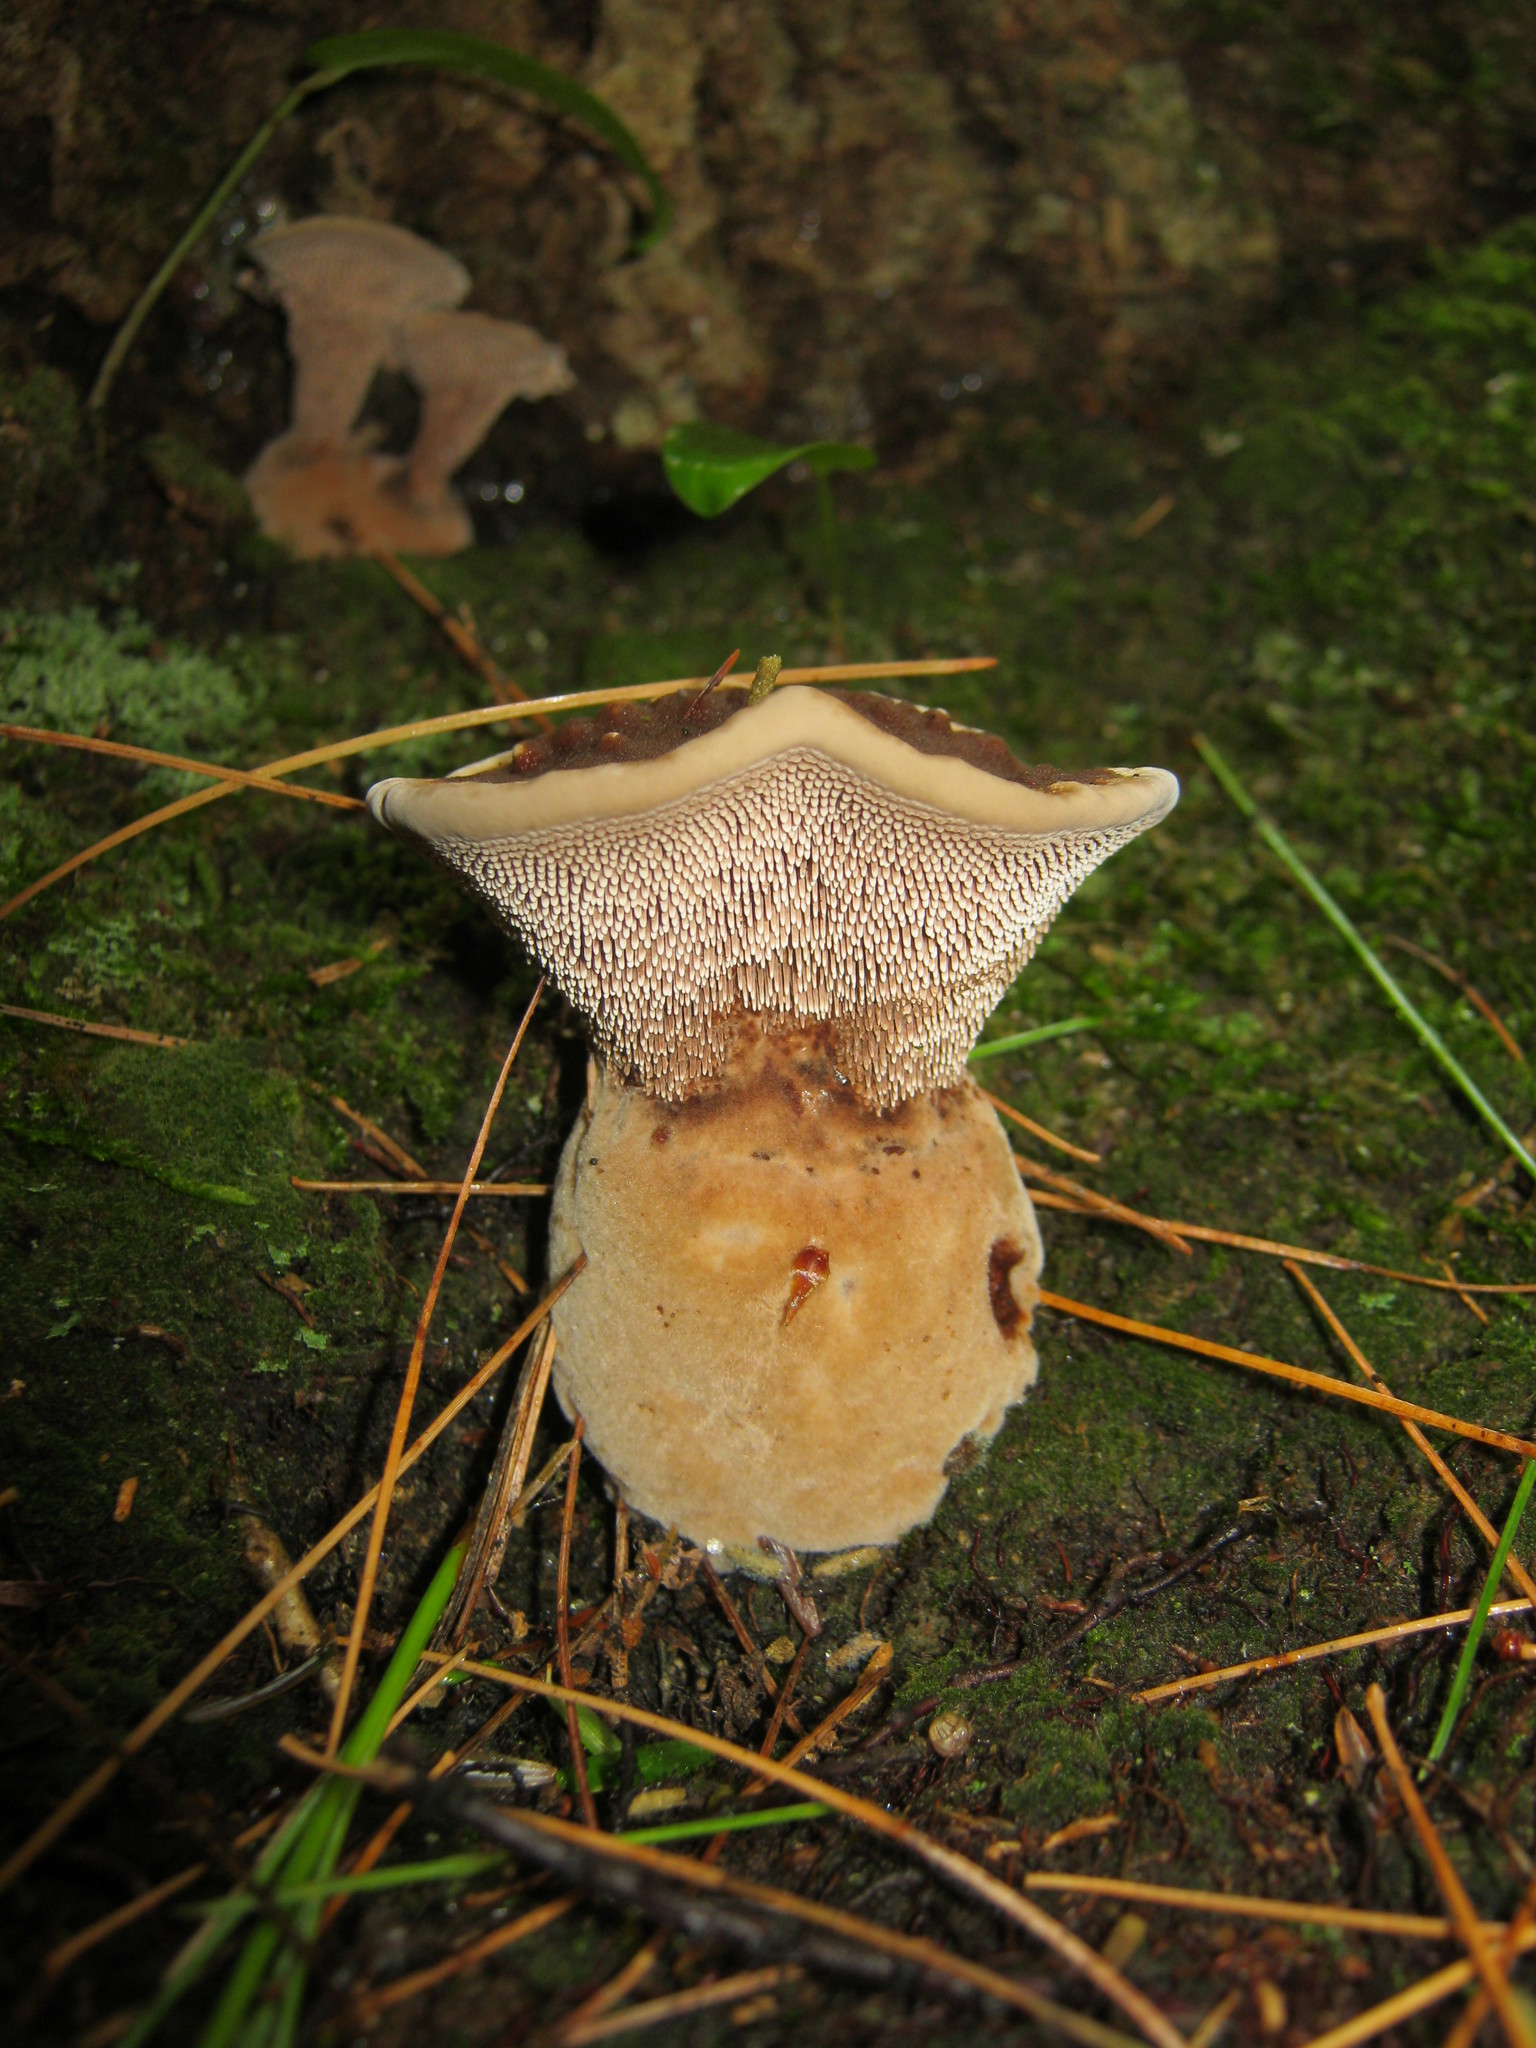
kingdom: Fungi
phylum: Basidiomycota
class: Agaricomycetes
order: Thelephorales
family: Bankeraceae
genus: Hydnellum
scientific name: Hydnellum spongiosipes
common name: Velvet tooth
